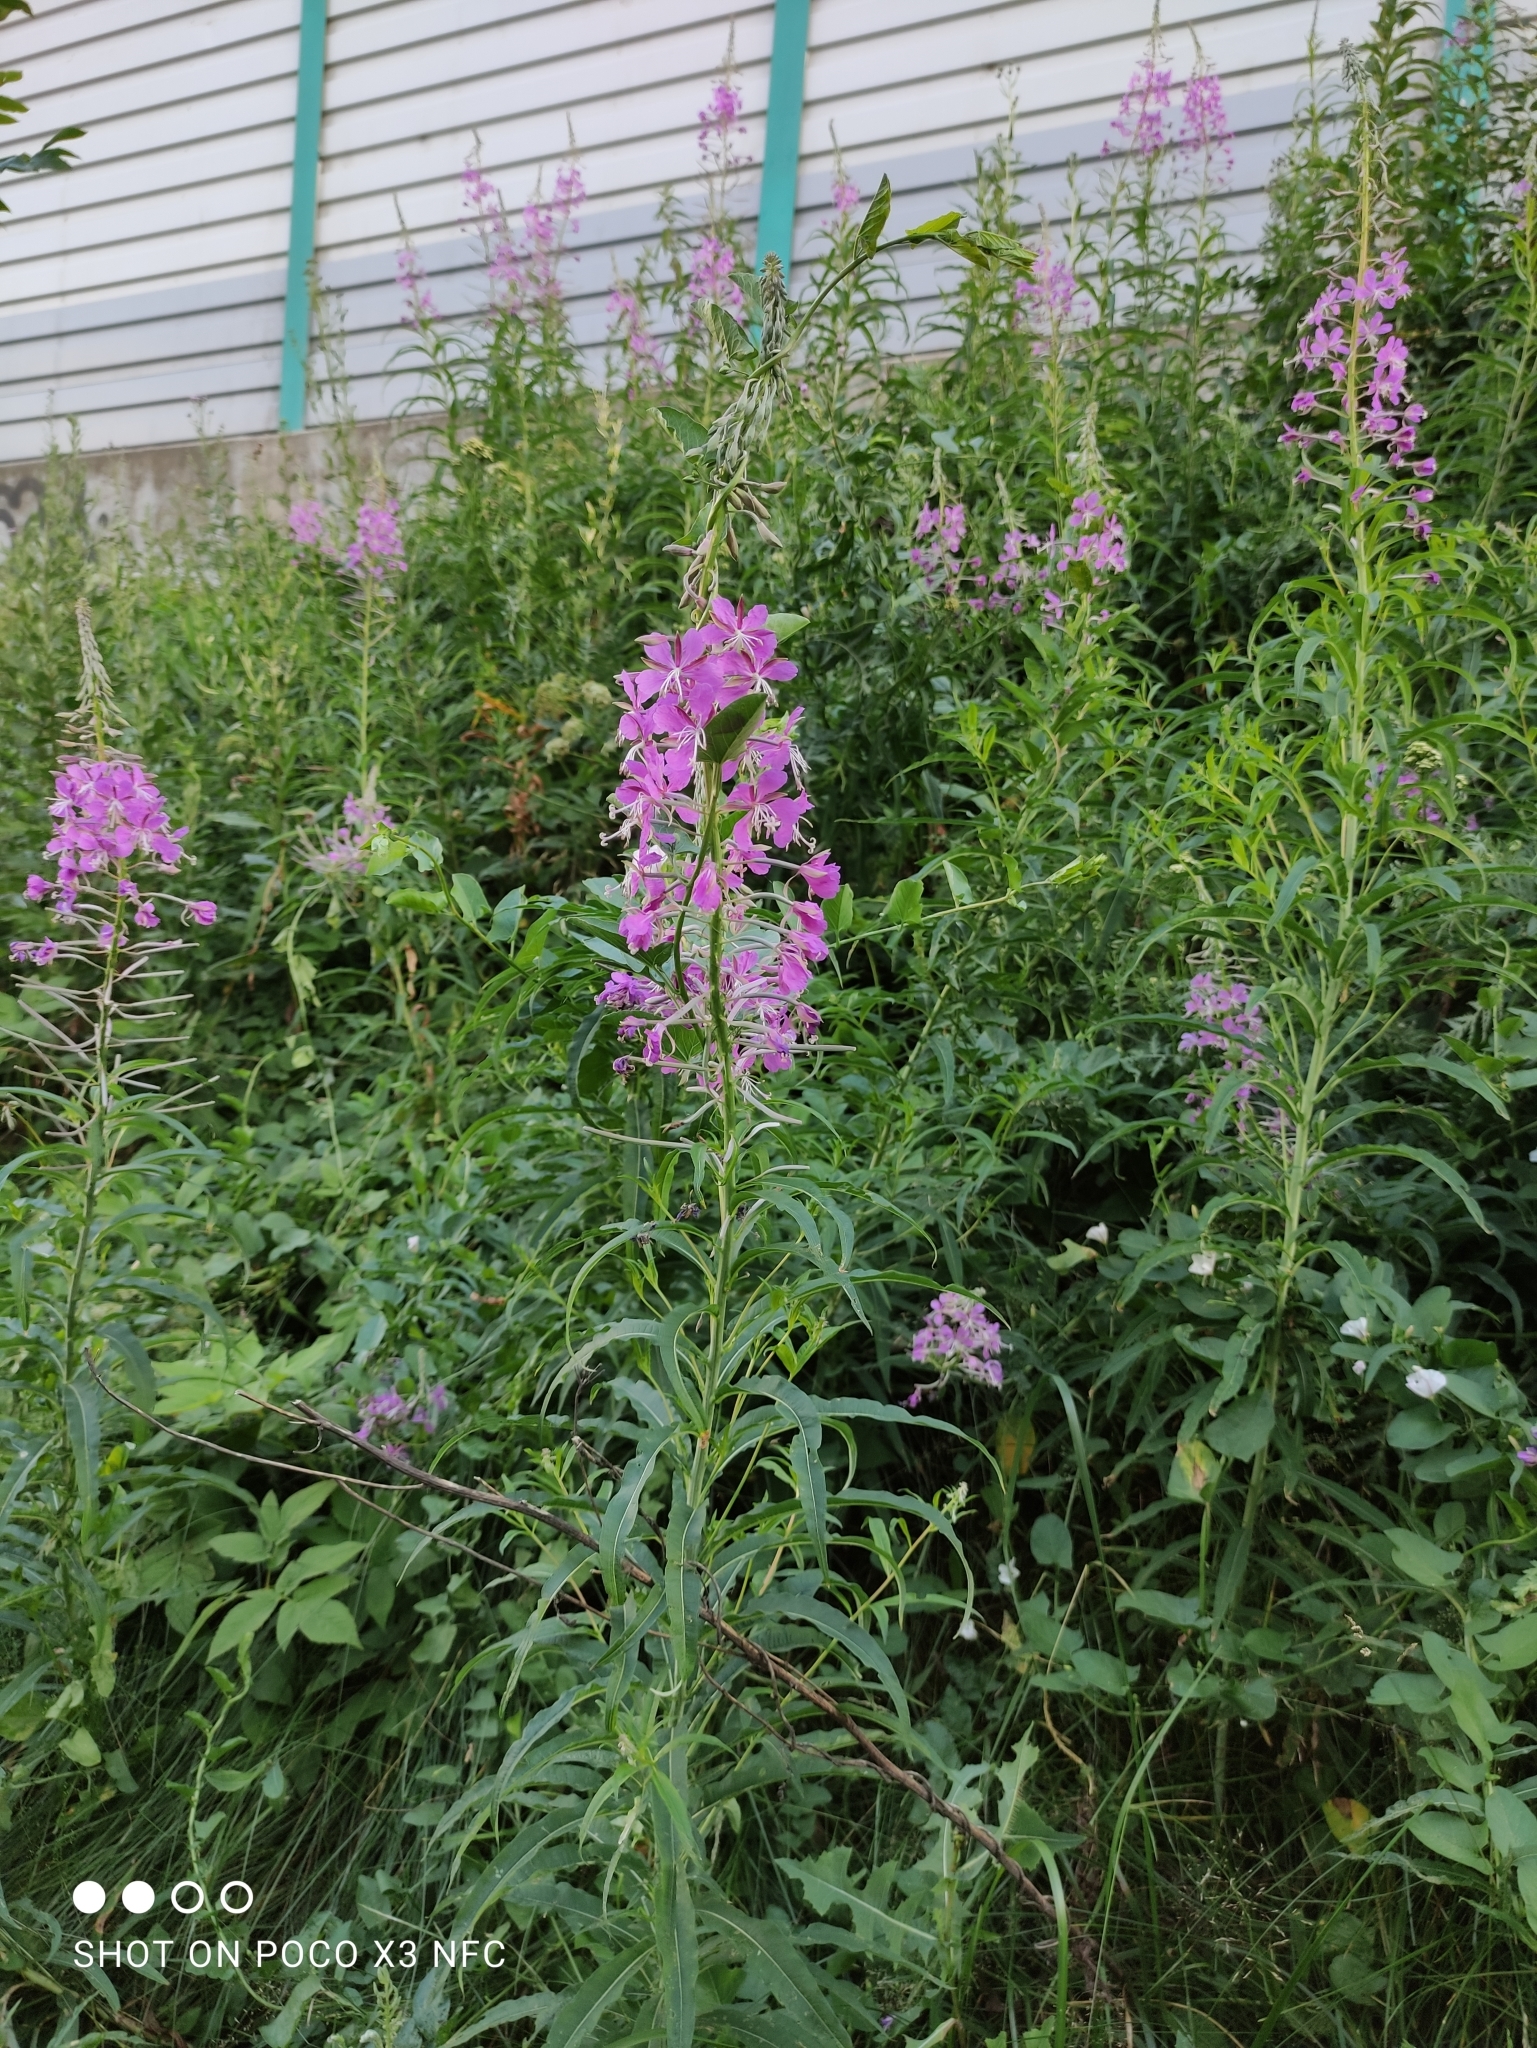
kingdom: Plantae
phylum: Tracheophyta
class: Magnoliopsida
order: Myrtales
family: Onagraceae
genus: Chamaenerion
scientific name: Chamaenerion angustifolium
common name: Fireweed
